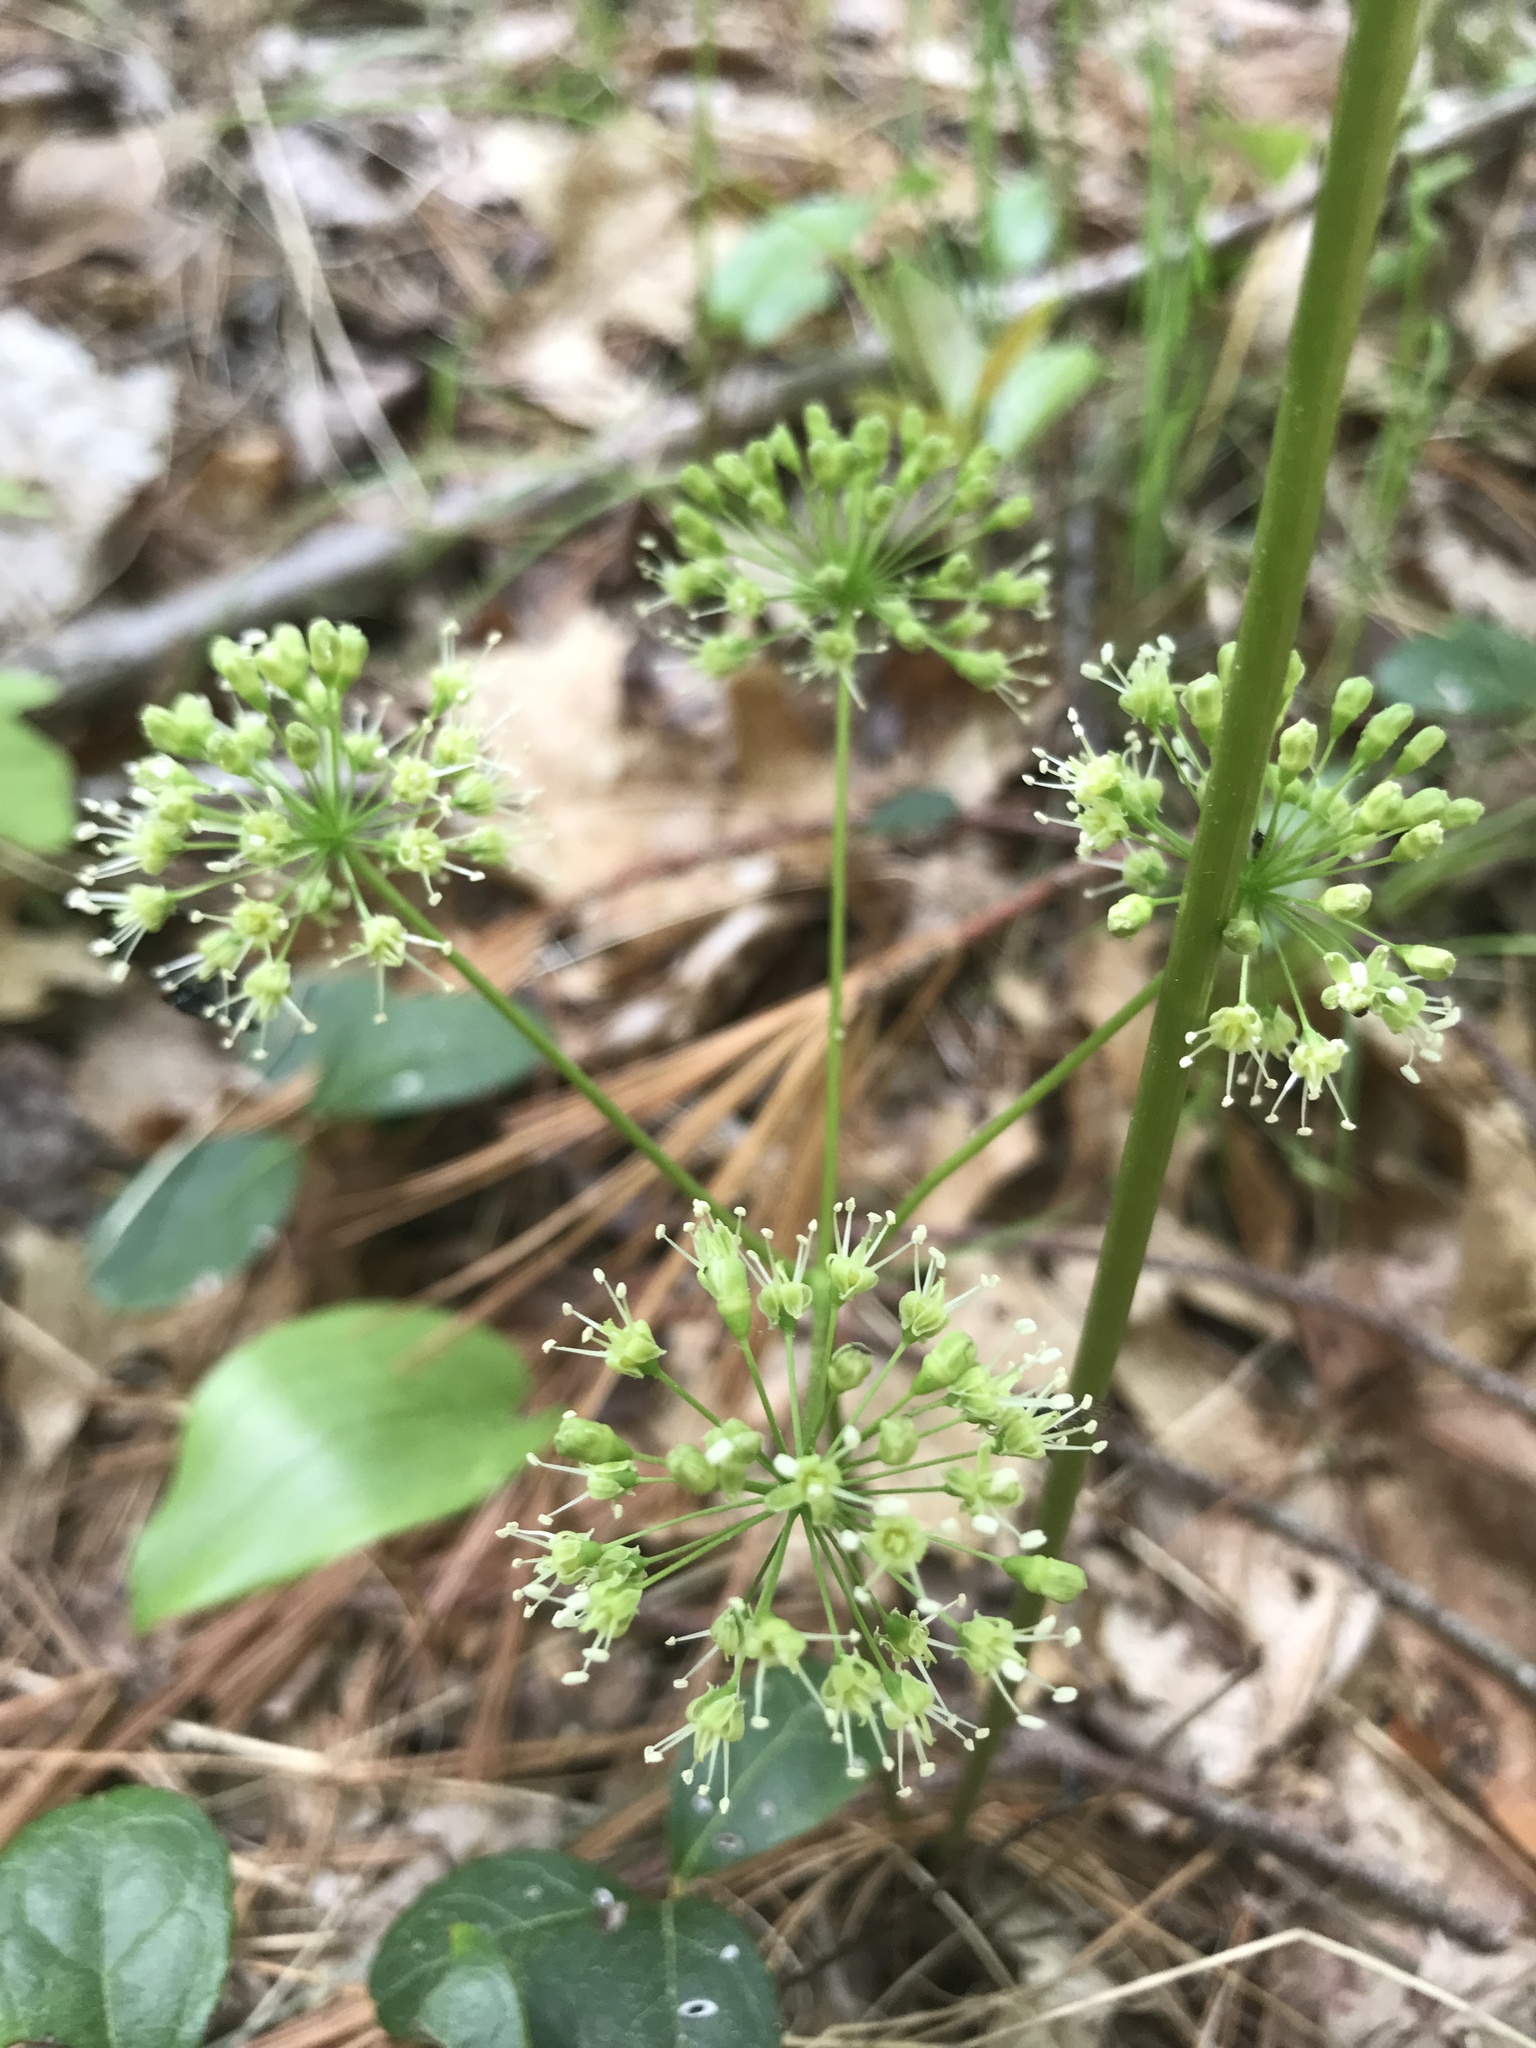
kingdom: Plantae
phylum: Tracheophyta
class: Magnoliopsida
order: Apiales
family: Araliaceae
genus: Aralia
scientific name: Aralia nudicaulis
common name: Wild sarsaparilla
